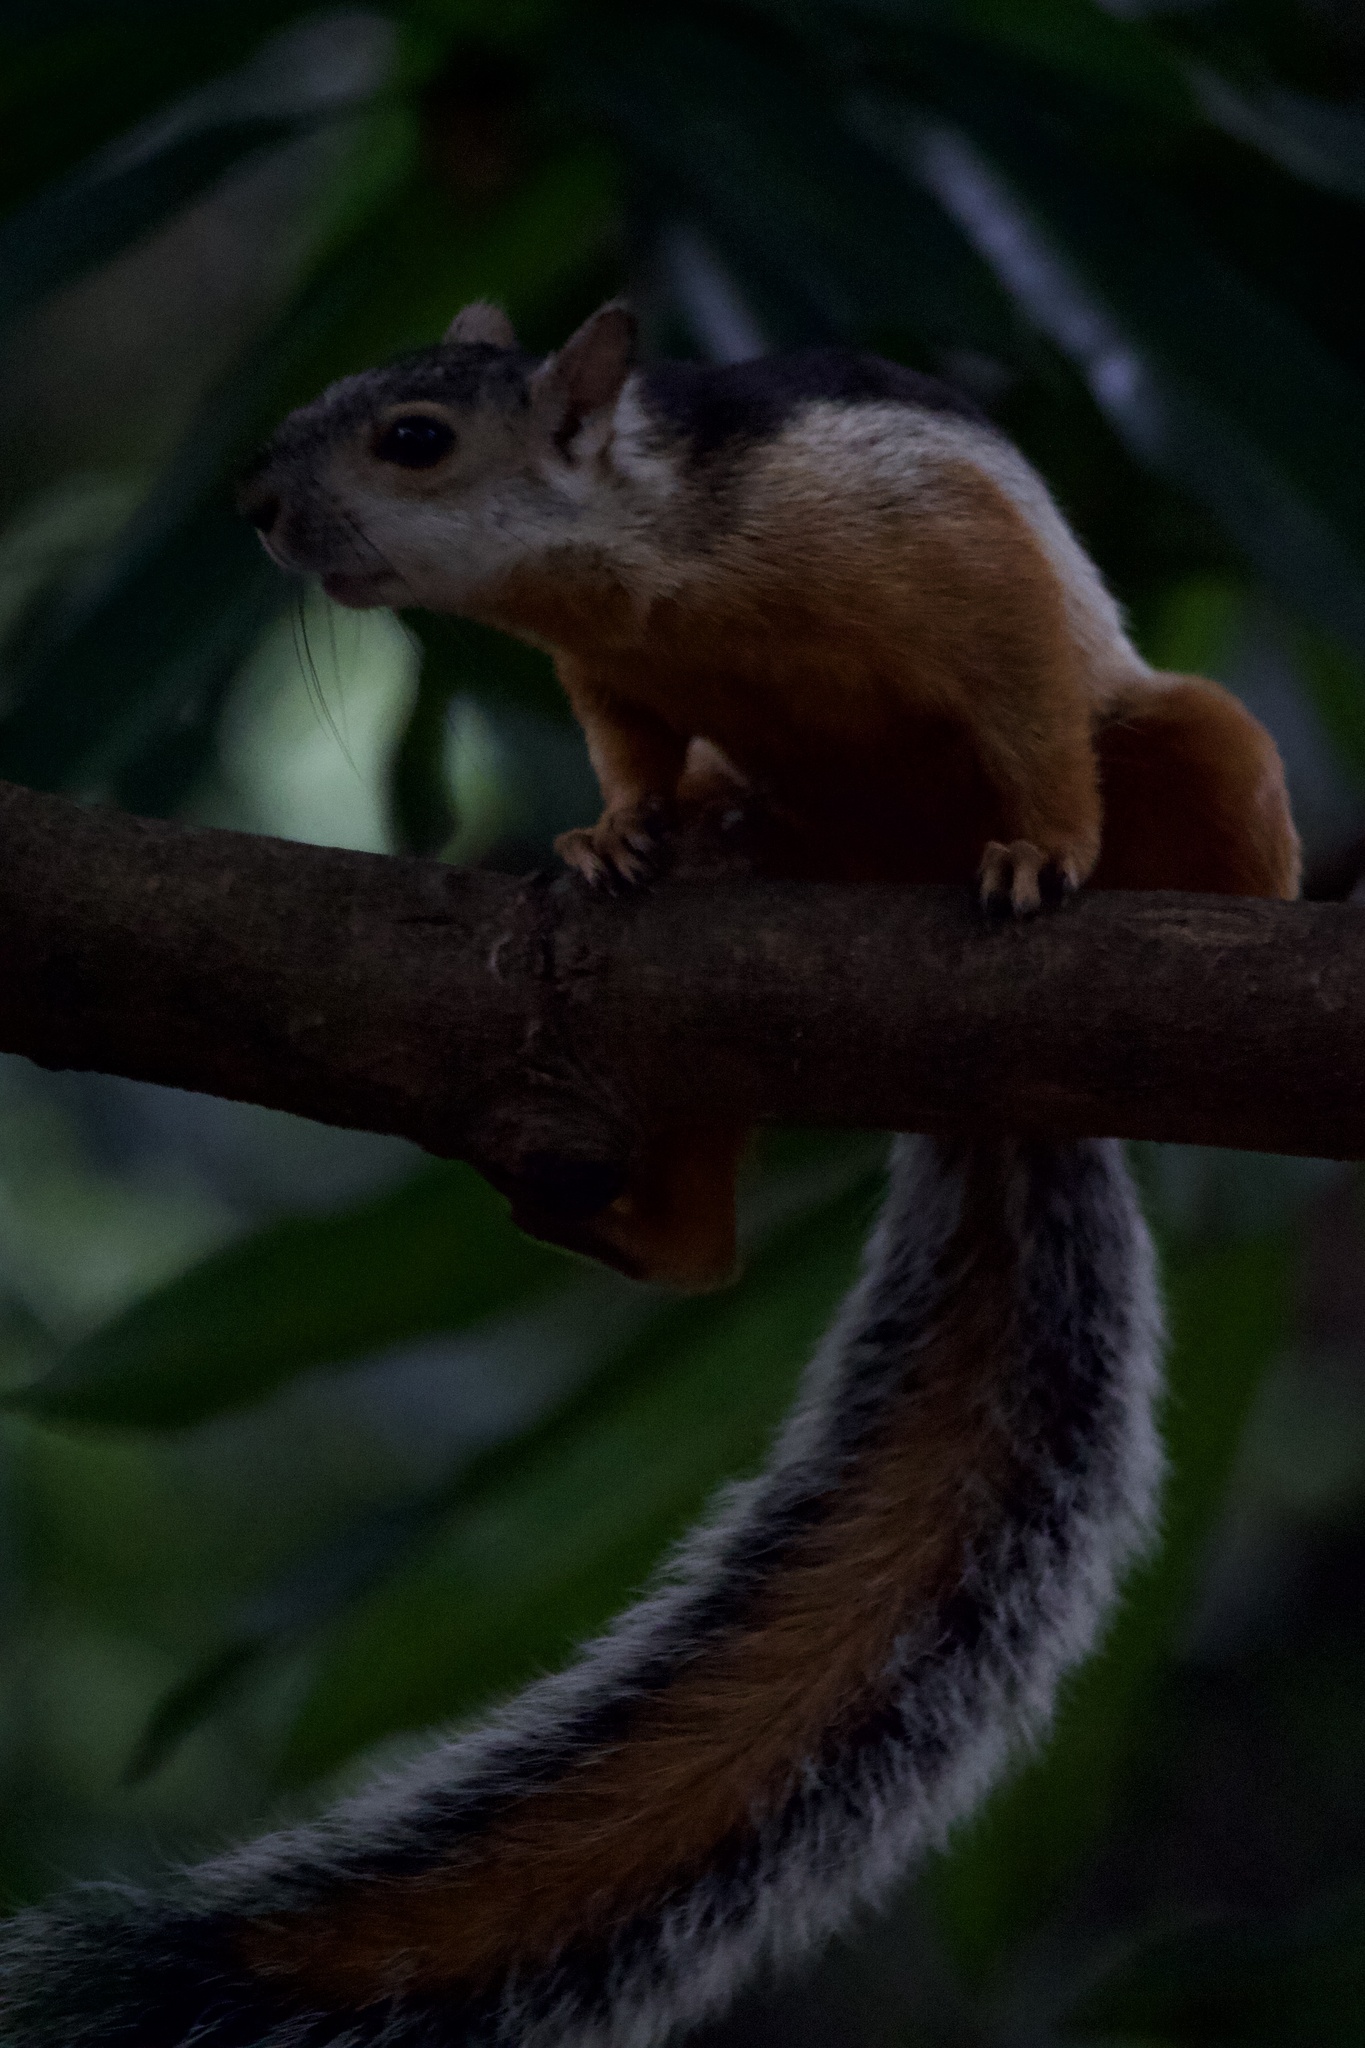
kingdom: Animalia
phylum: Chordata
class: Mammalia
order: Rodentia
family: Sciuridae
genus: Sciurus
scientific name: Sciurus variegatoides
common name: Variegated squirrel
